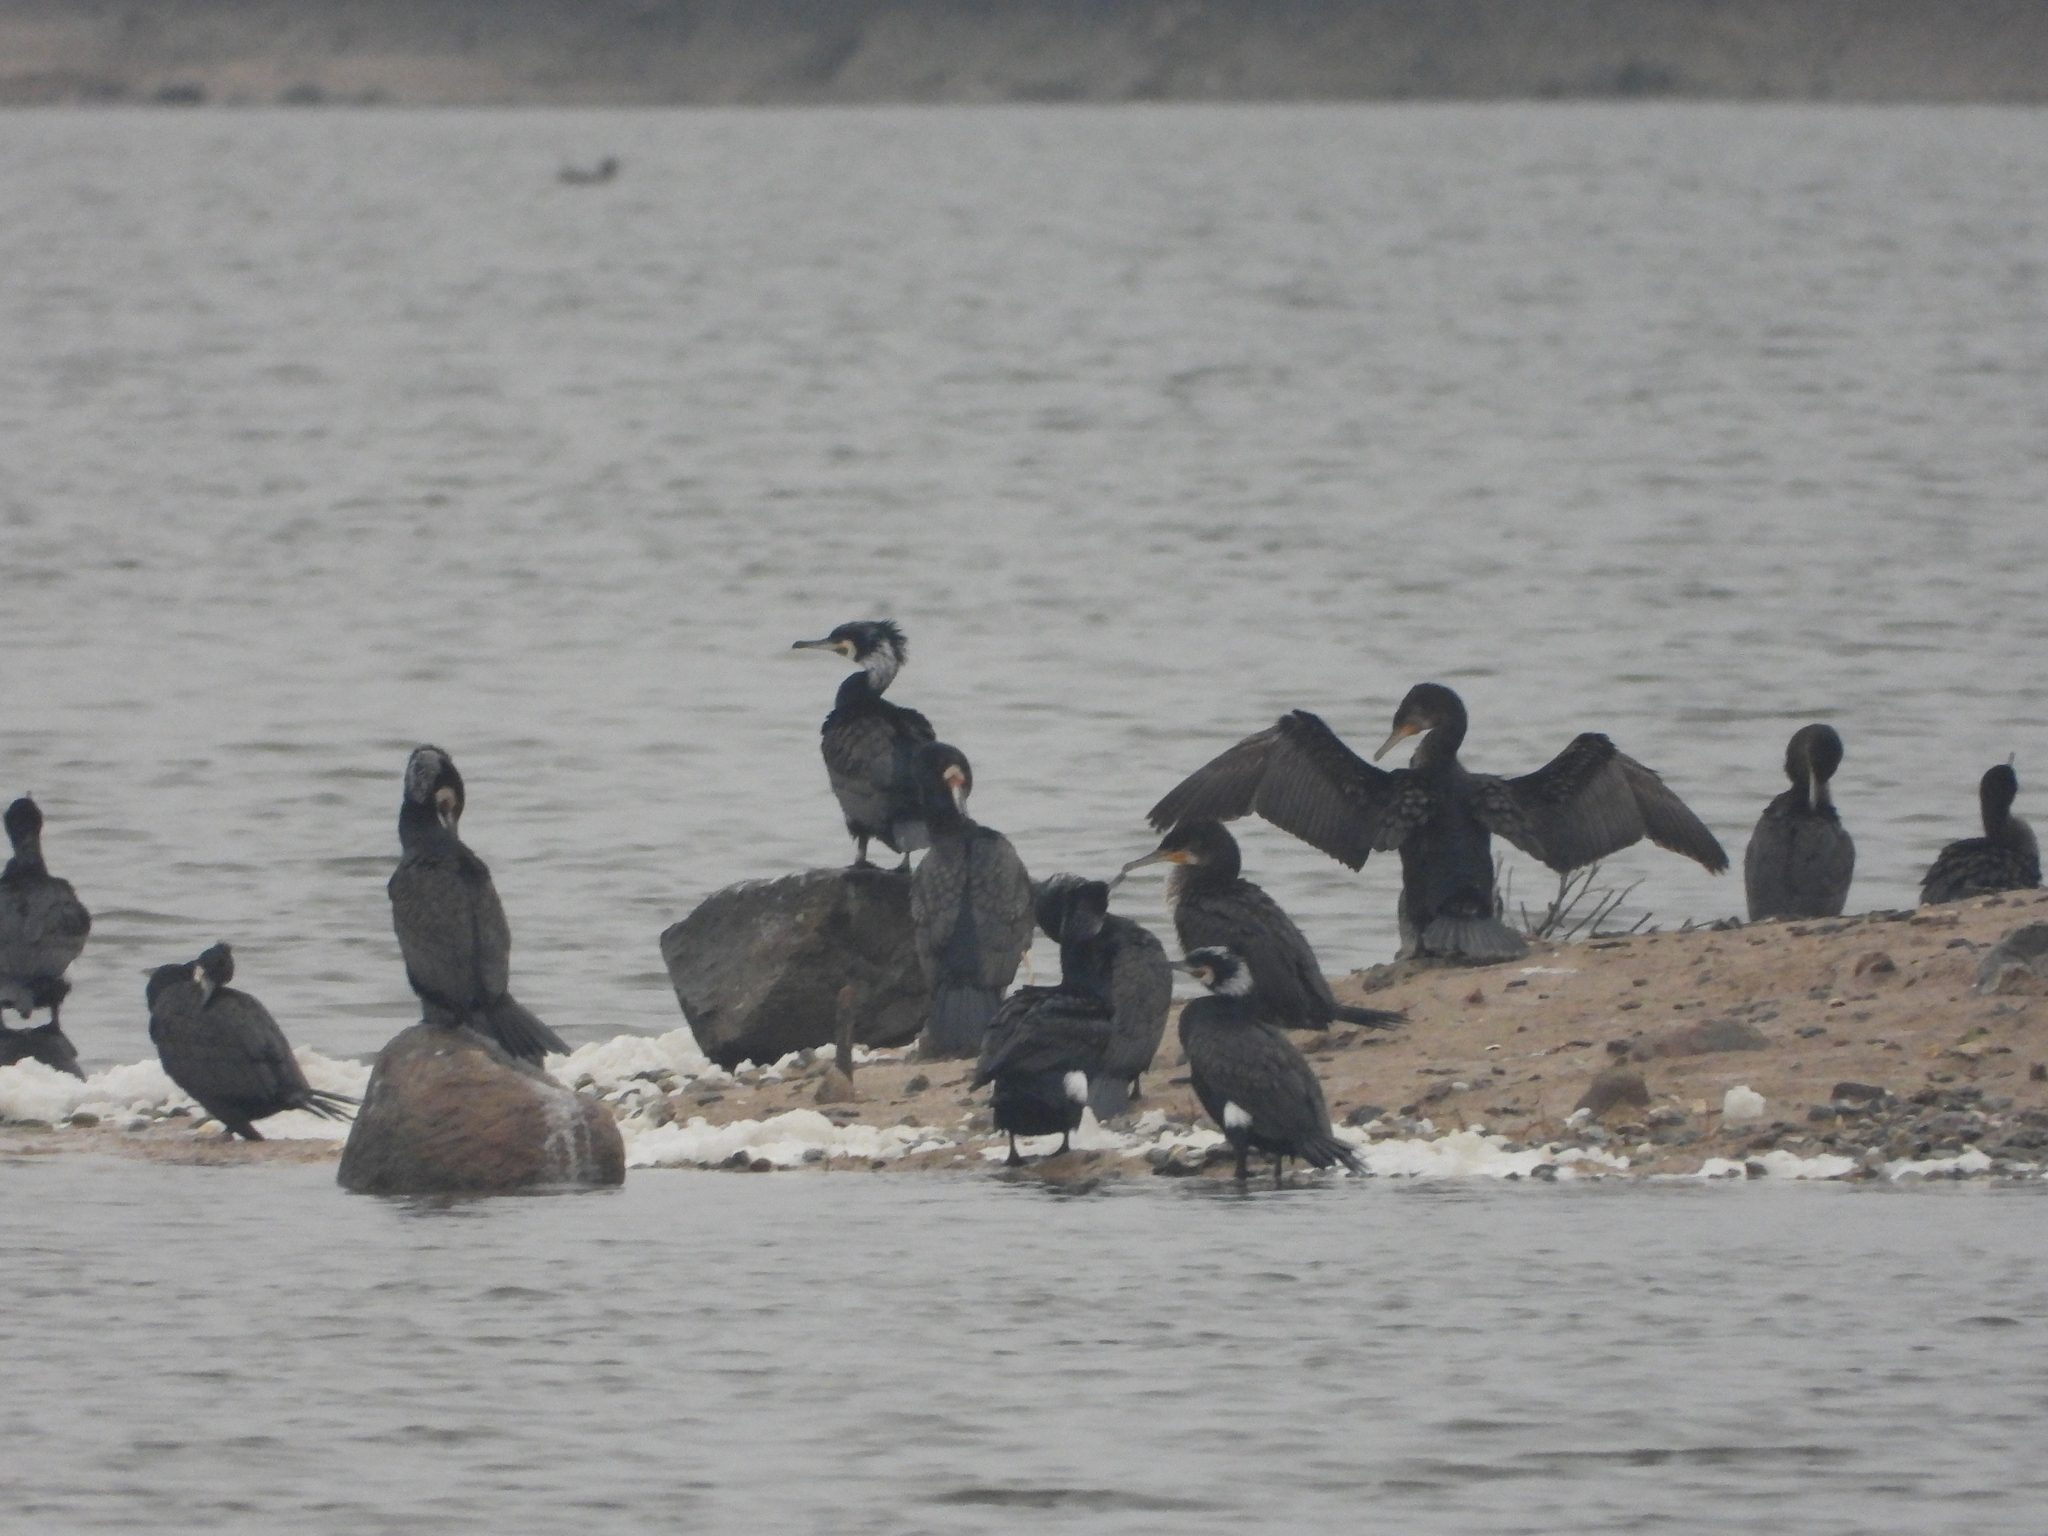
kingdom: Animalia
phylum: Chordata
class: Aves
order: Suliformes
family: Phalacrocoracidae
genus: Phalacrocorax
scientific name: Phalacrocorax carbo
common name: Great cormorant
